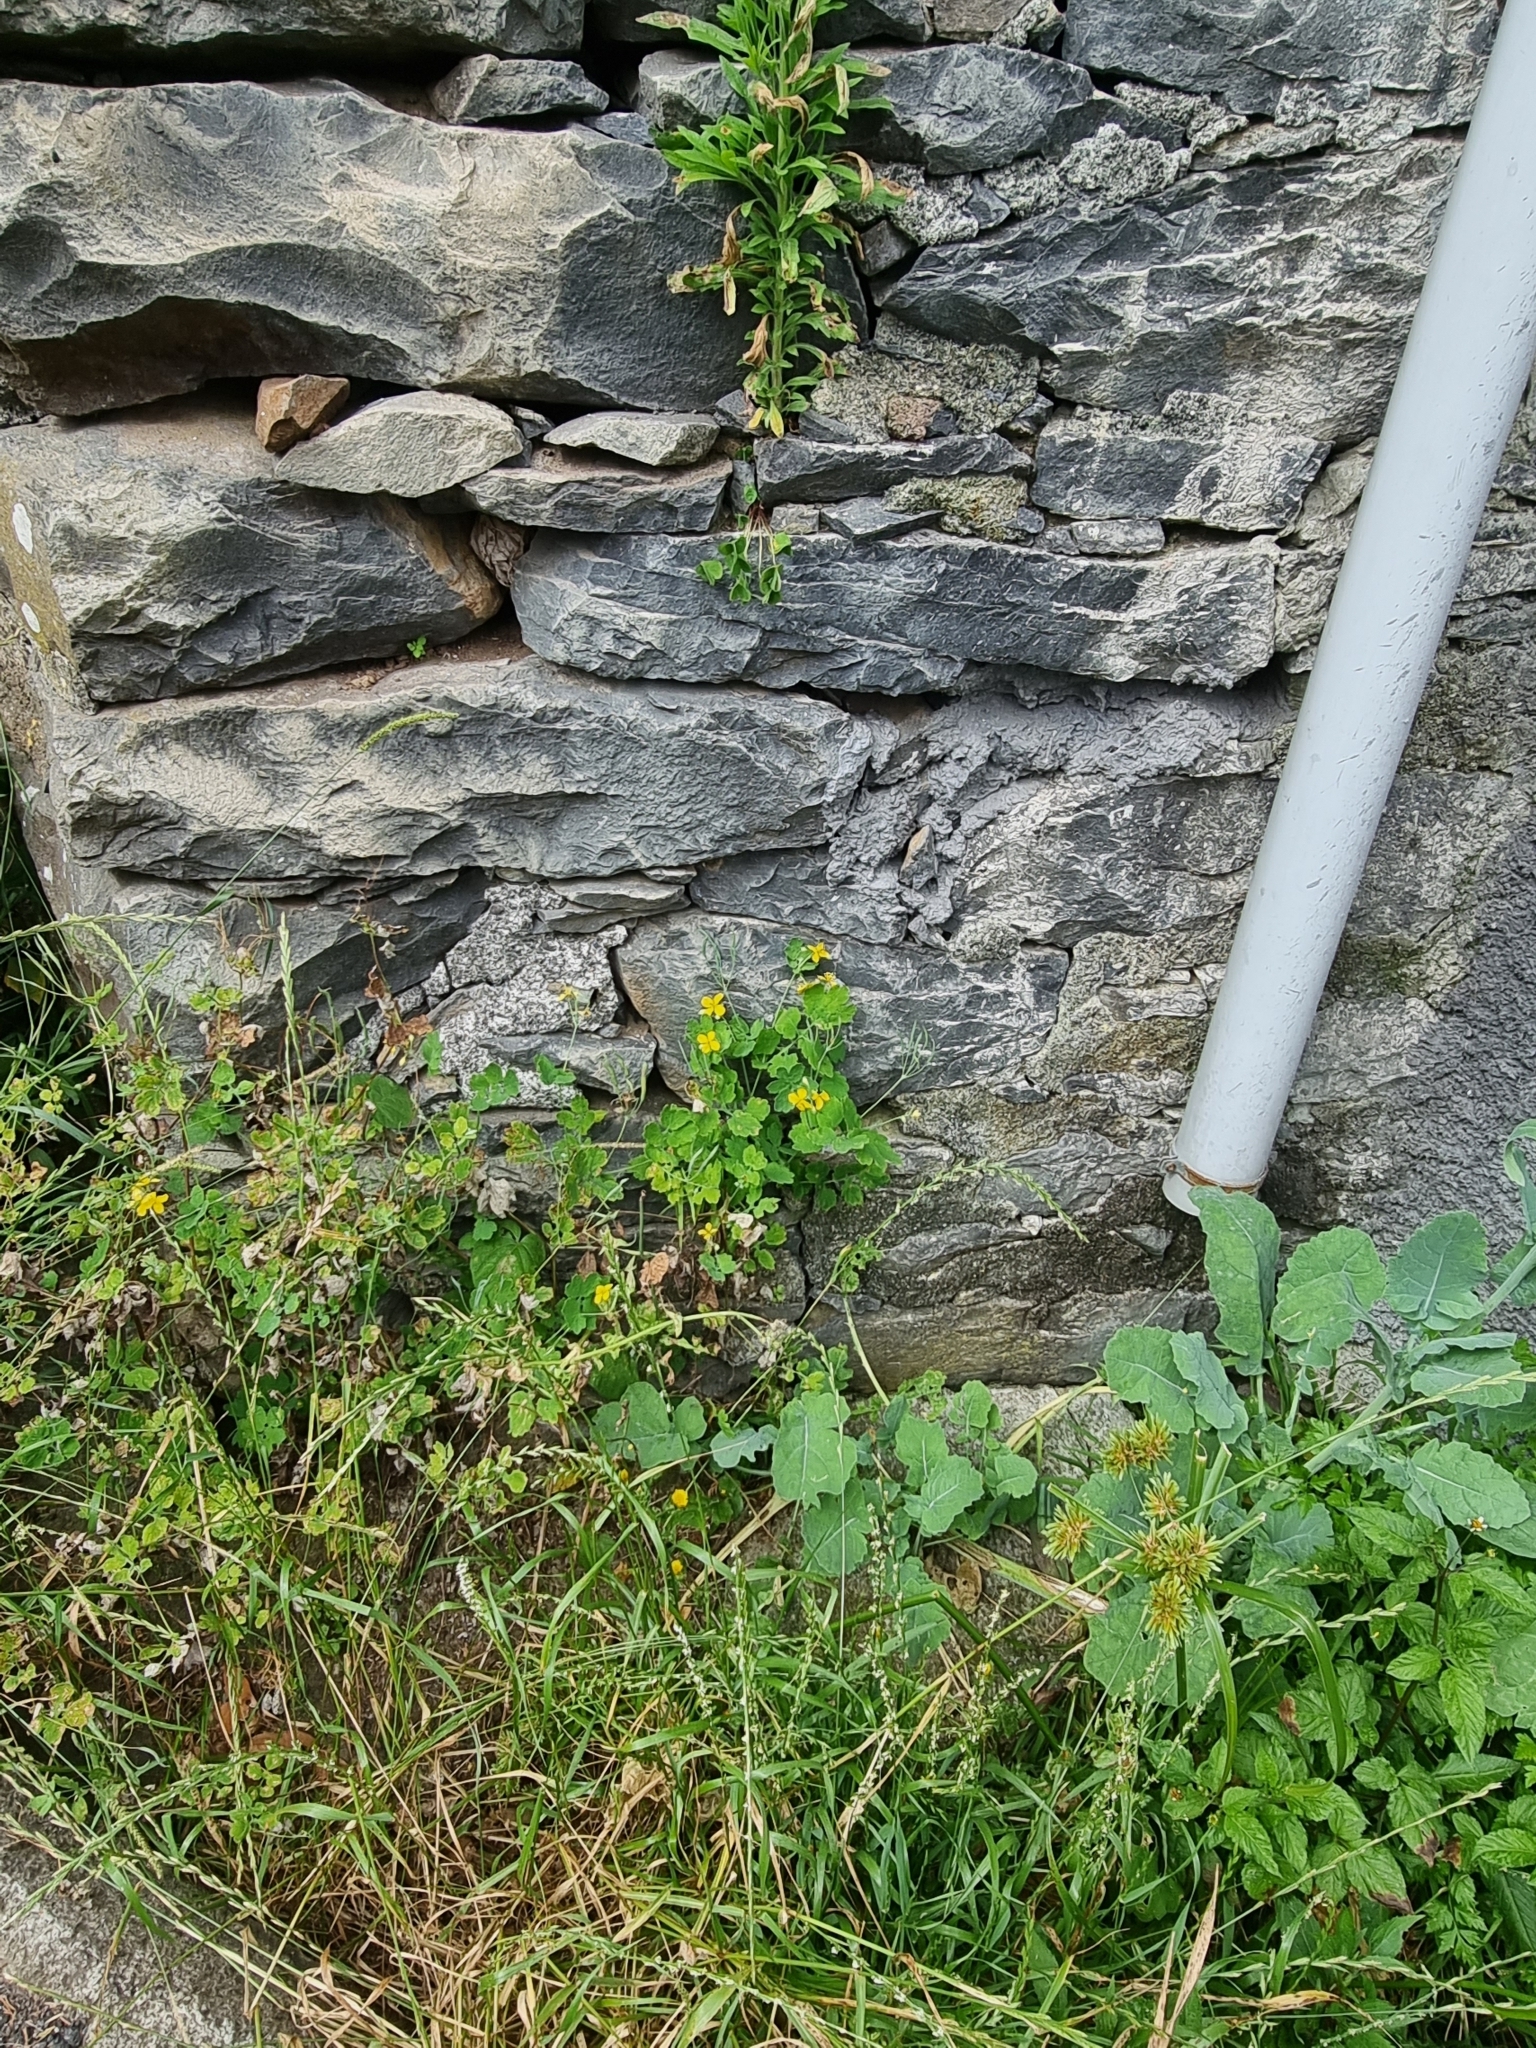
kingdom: Plantae
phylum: Tracheophyta
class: Magnoliopsida
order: Ranunculales
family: Papaveraceae
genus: Chelidonium
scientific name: Chelidonium majus
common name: Greater celandine
